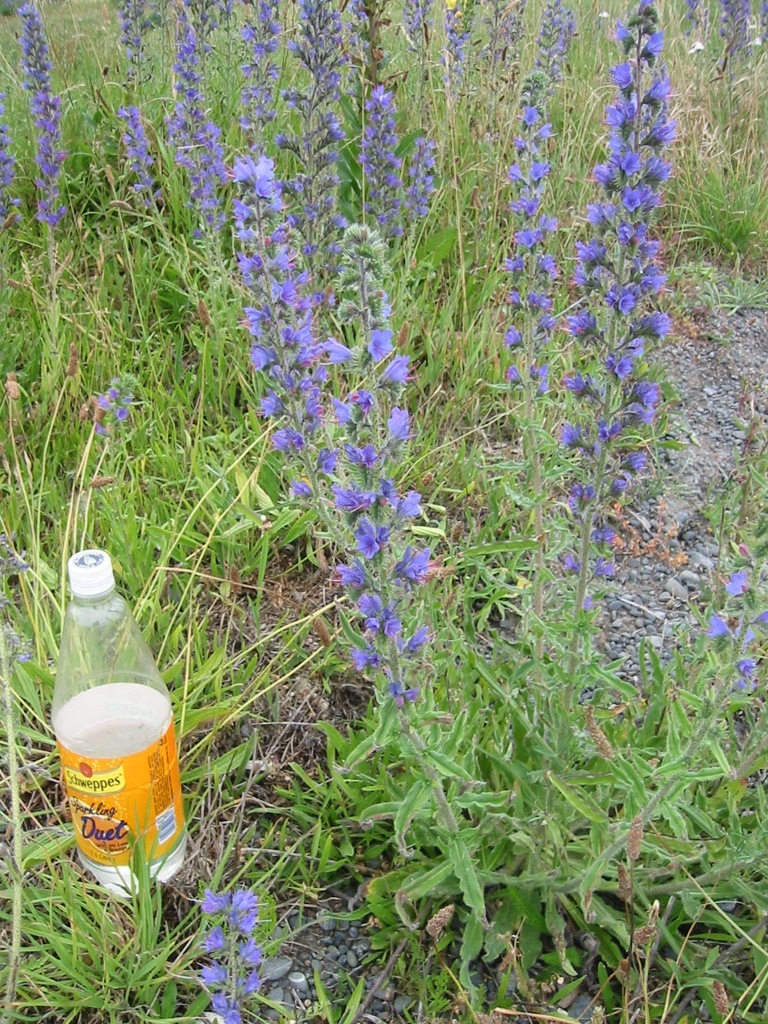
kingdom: Plantae
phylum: Tracheophyta
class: Magnoliopsida
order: Boraginales
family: Boraginaceae
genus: Echium
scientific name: Echium vulgare
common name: Common viper's bugloss
